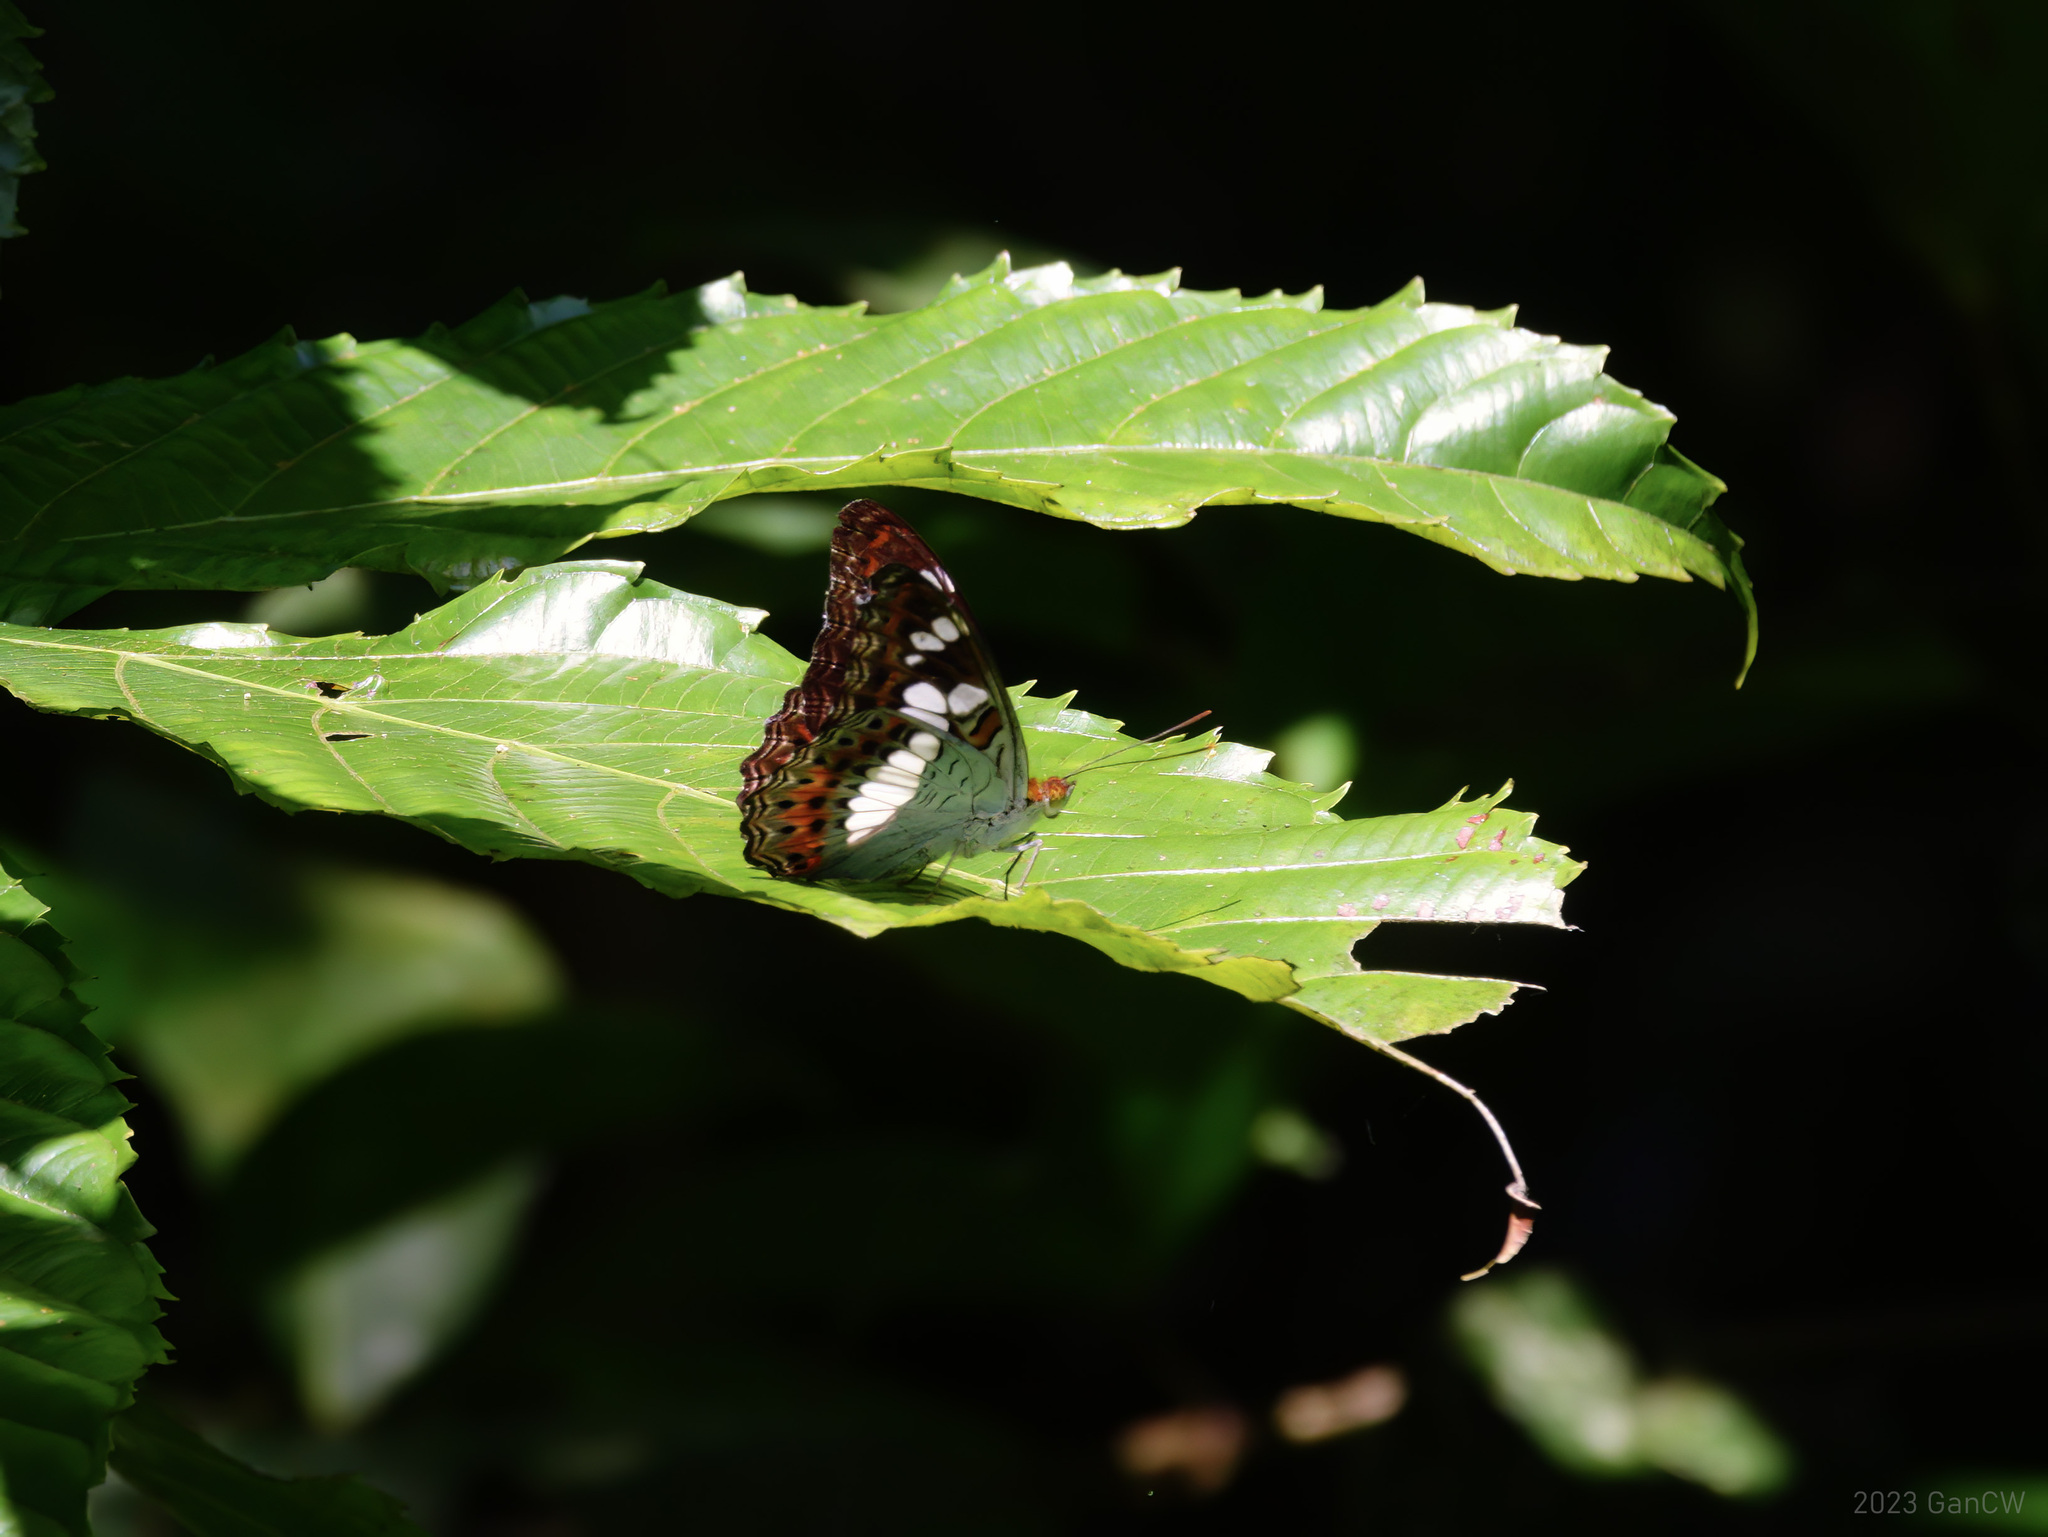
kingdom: Animalia
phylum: Arthropoda
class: Insecta
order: Lepidoptera
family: Nymphalidae
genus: Limenitis
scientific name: Limenitis Moduza procris
